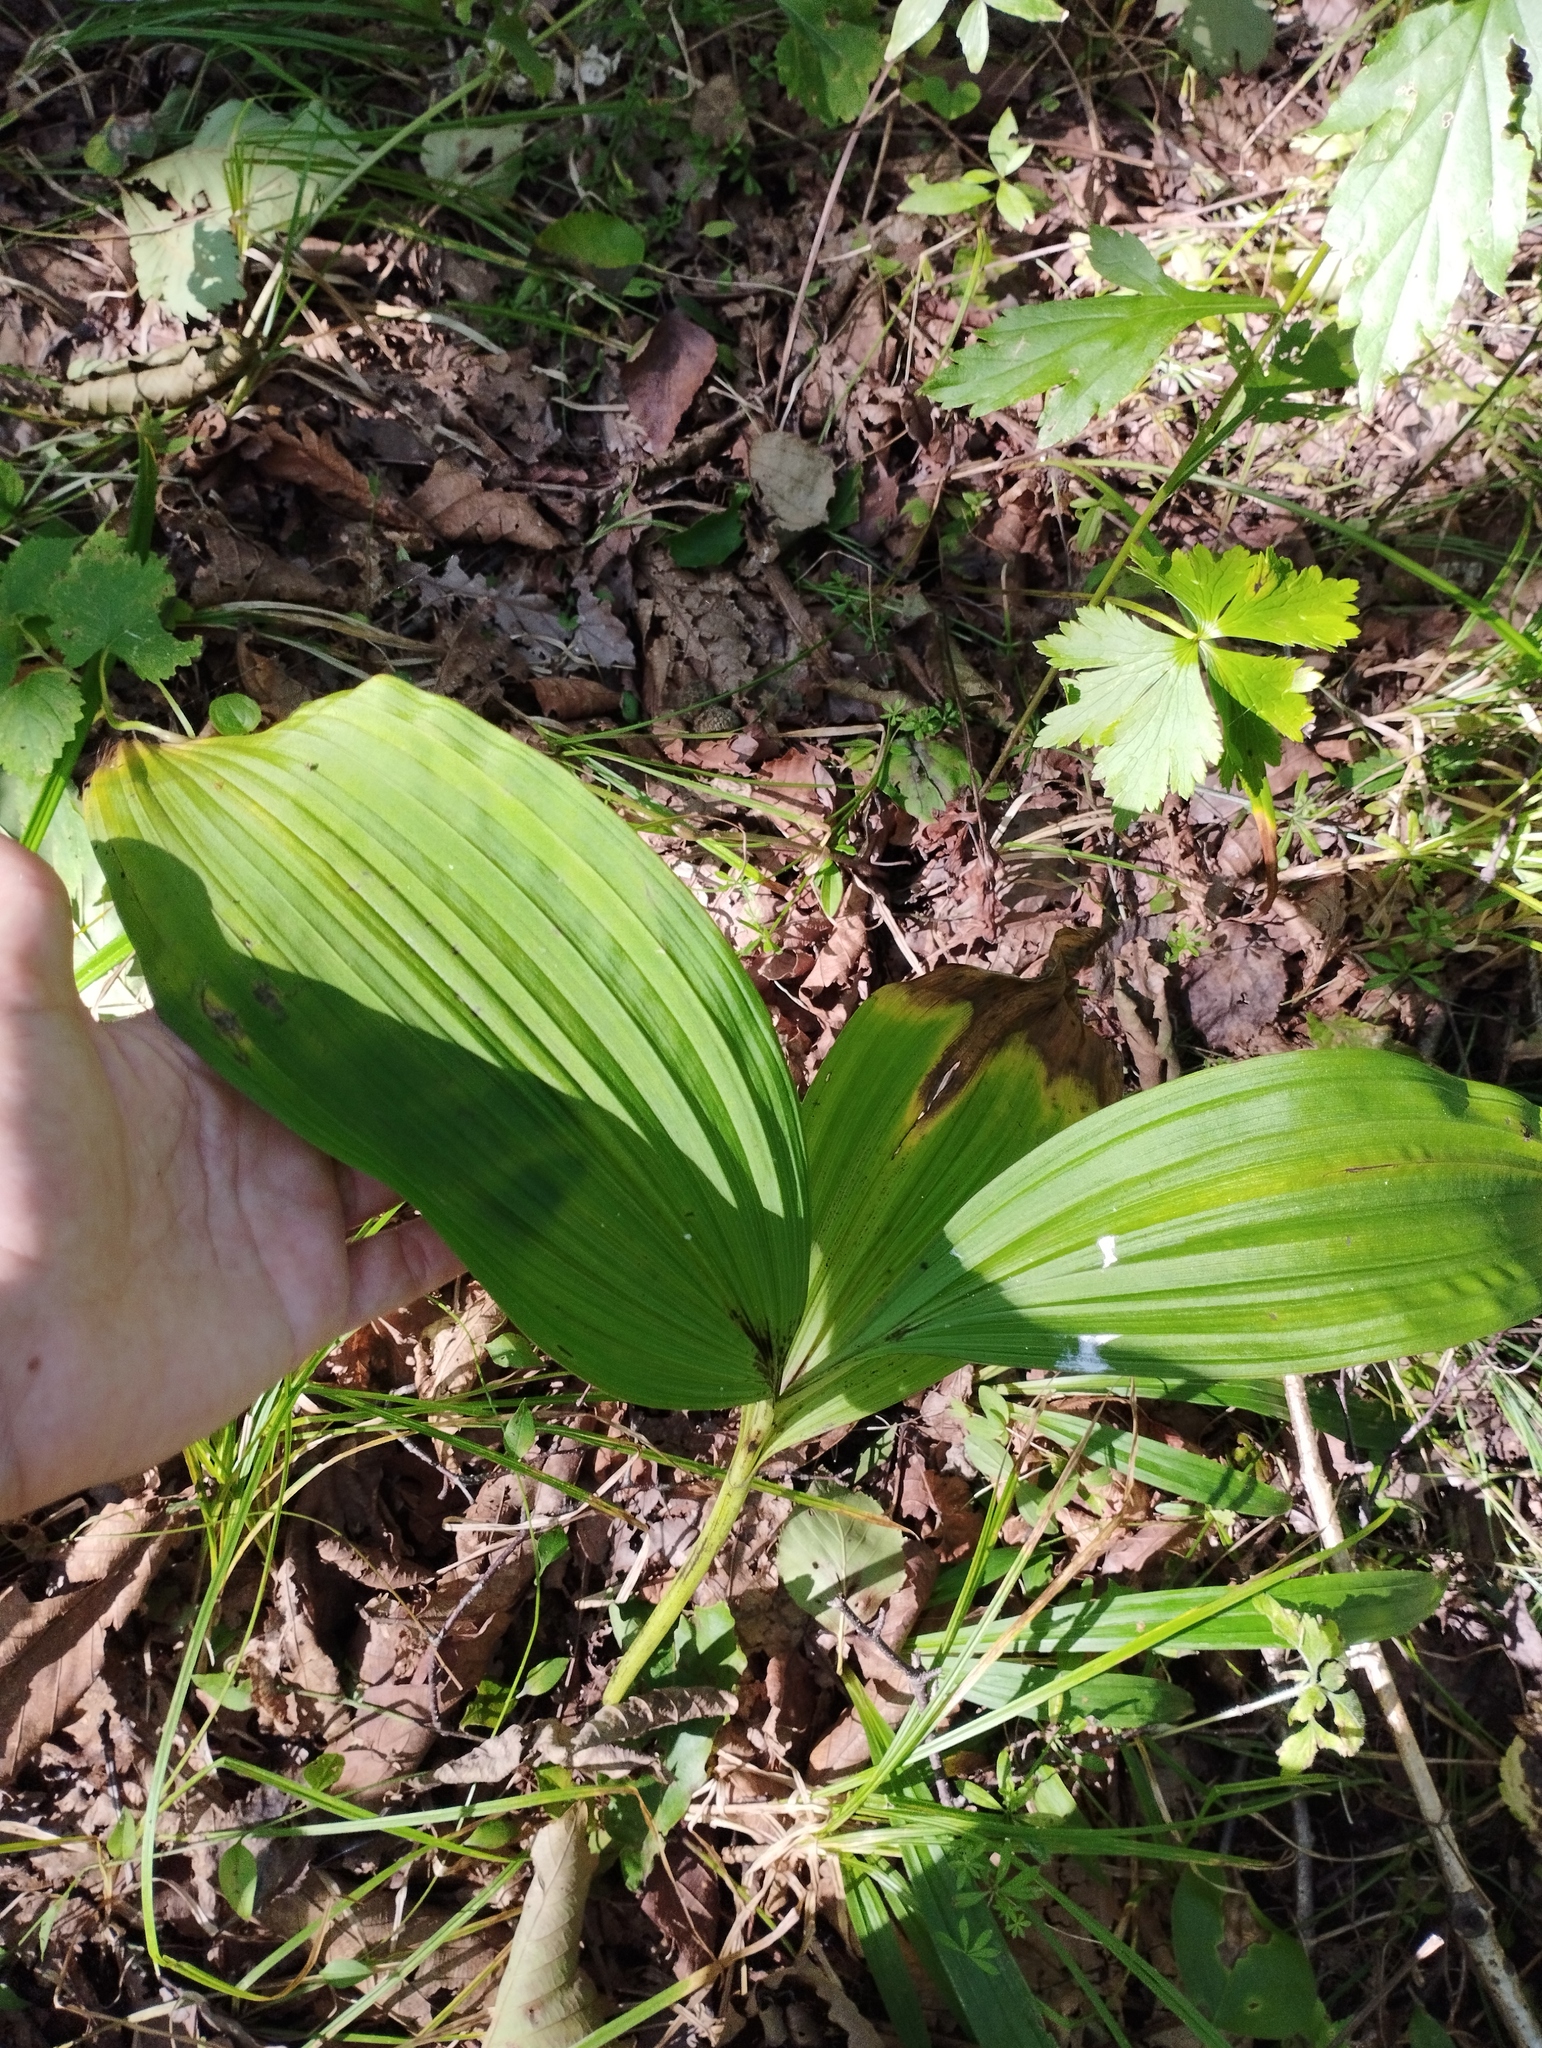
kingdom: Plantae
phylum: Tracheophyta
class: Liliopsida
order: Liliales
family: Melanthiaceae
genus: Veratrum
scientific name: Veratrum nigrum
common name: Black veratrum
